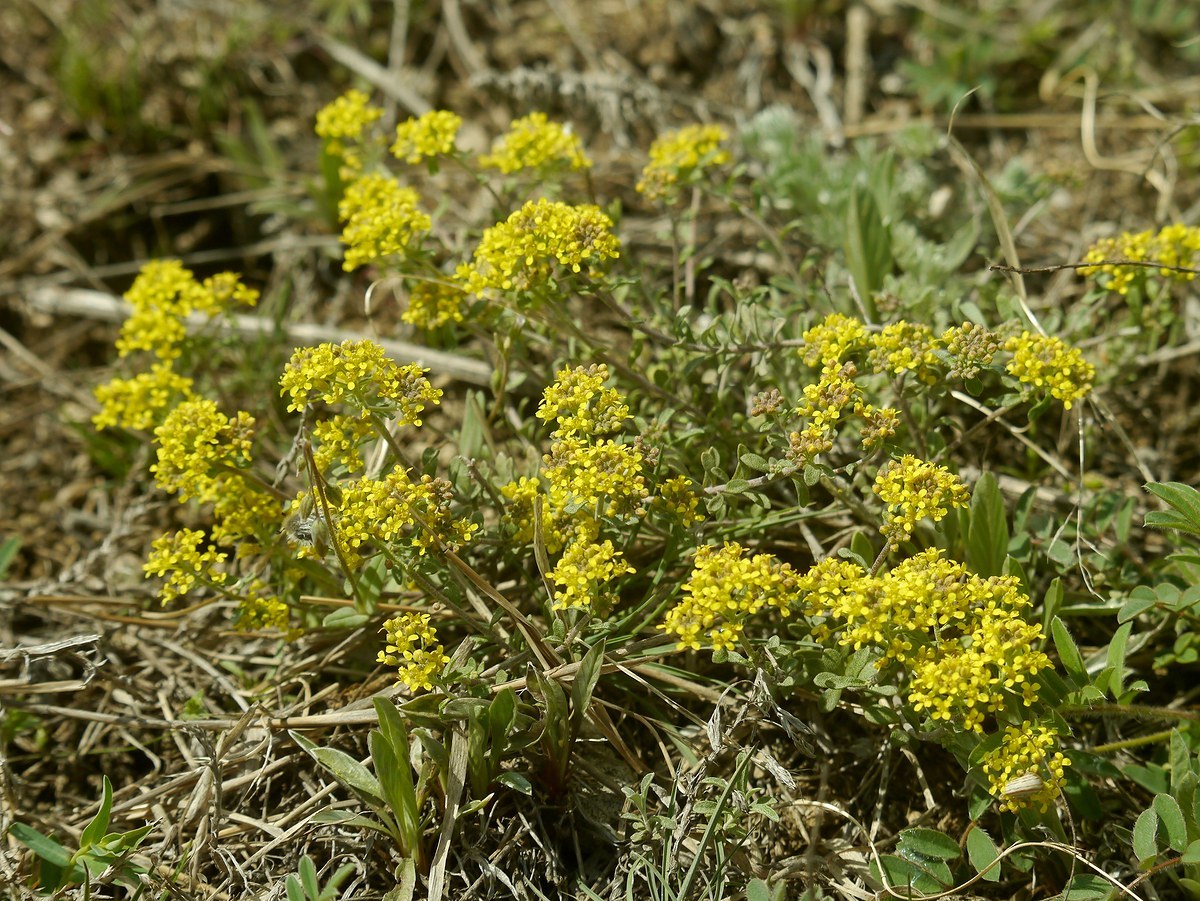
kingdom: Plantae
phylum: Tracheophyta
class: Magnoliopsida
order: Brassicales
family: Brassicaceae
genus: Odontarrhena
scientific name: Odontarrhena tortuosa
